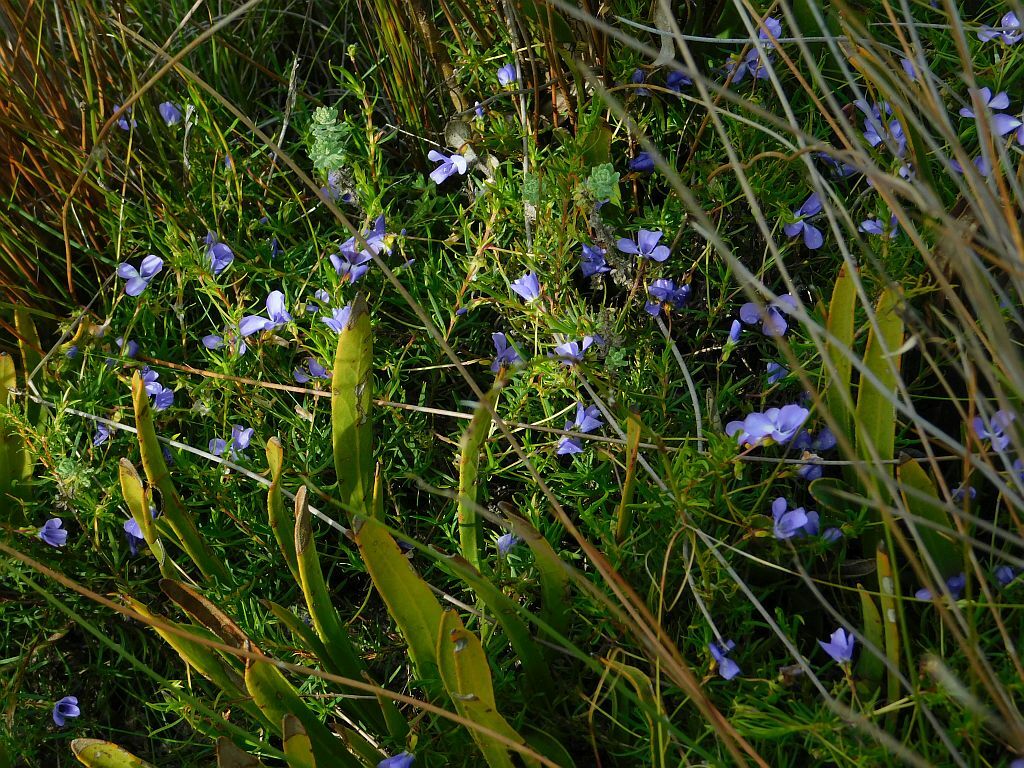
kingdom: Plantae
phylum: Tracheophyta
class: Magnoliopsida
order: Malpighiales
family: Violaceae
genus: Viola
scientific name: Viola decumbens
